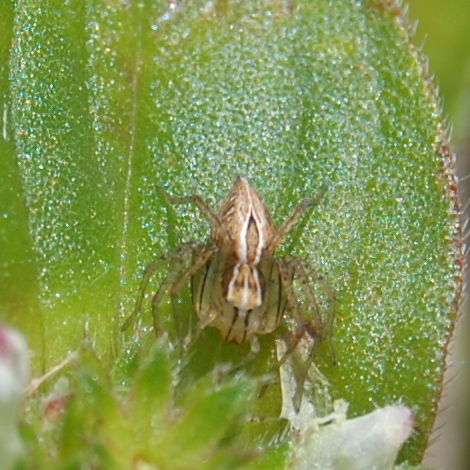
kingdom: Animalia
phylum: Arthropoda
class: Arachnida
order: Araneae
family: Oxyopidae
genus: Oxyopes
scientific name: Oxyopes salticus
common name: Lynx spiders
